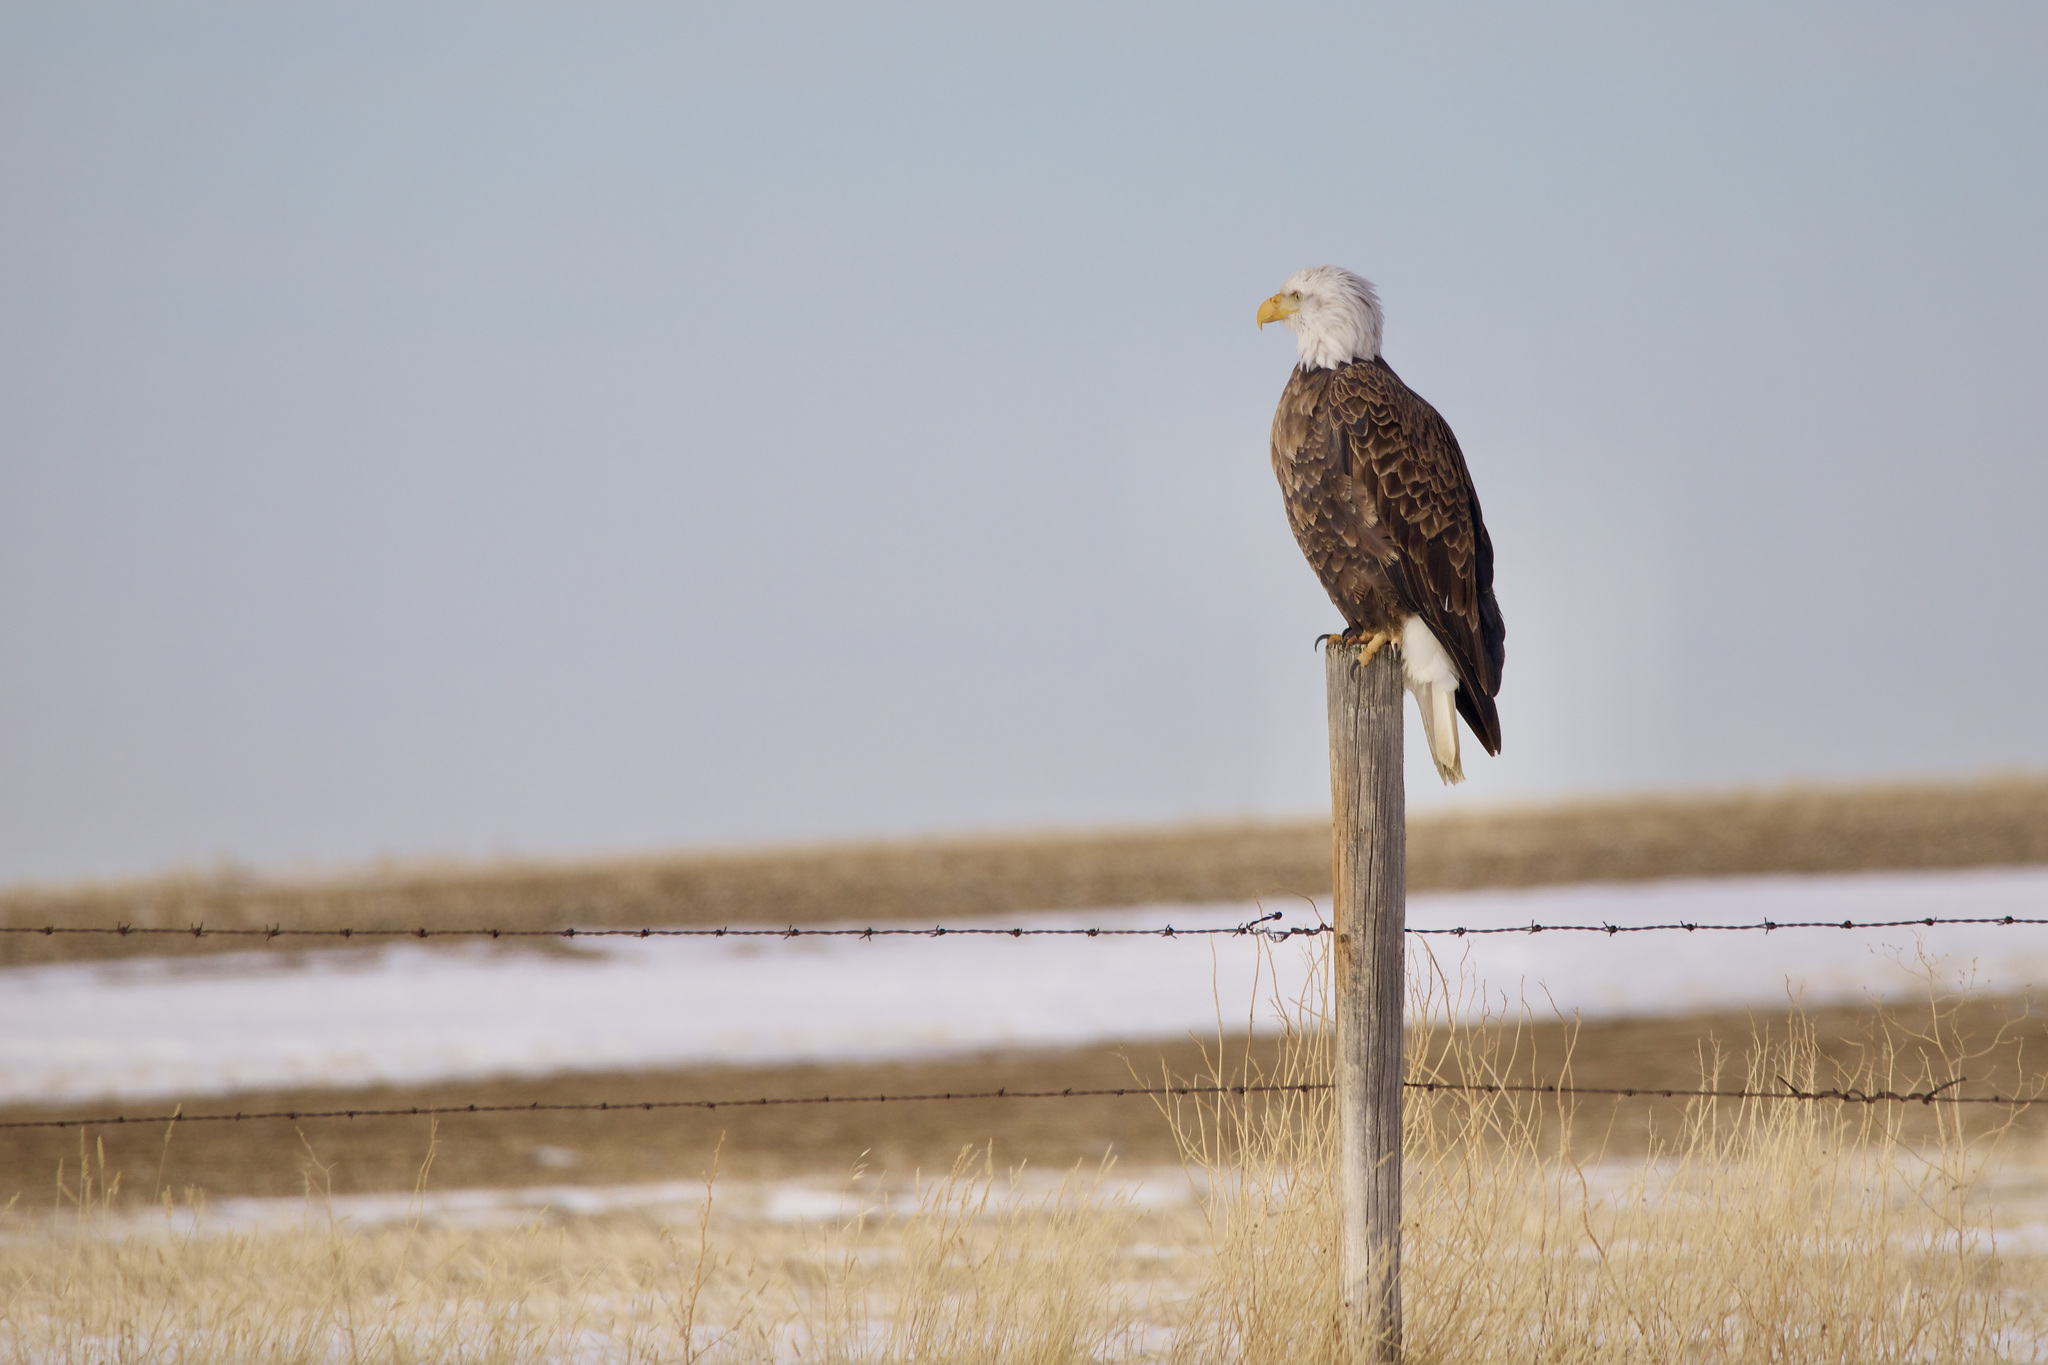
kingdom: Animalia
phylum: Chordata
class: Aves
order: Accipitriformes
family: Accipitridae
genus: Haliaeetus
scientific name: Haliaeetus leucocephalus
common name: Bald eagle
